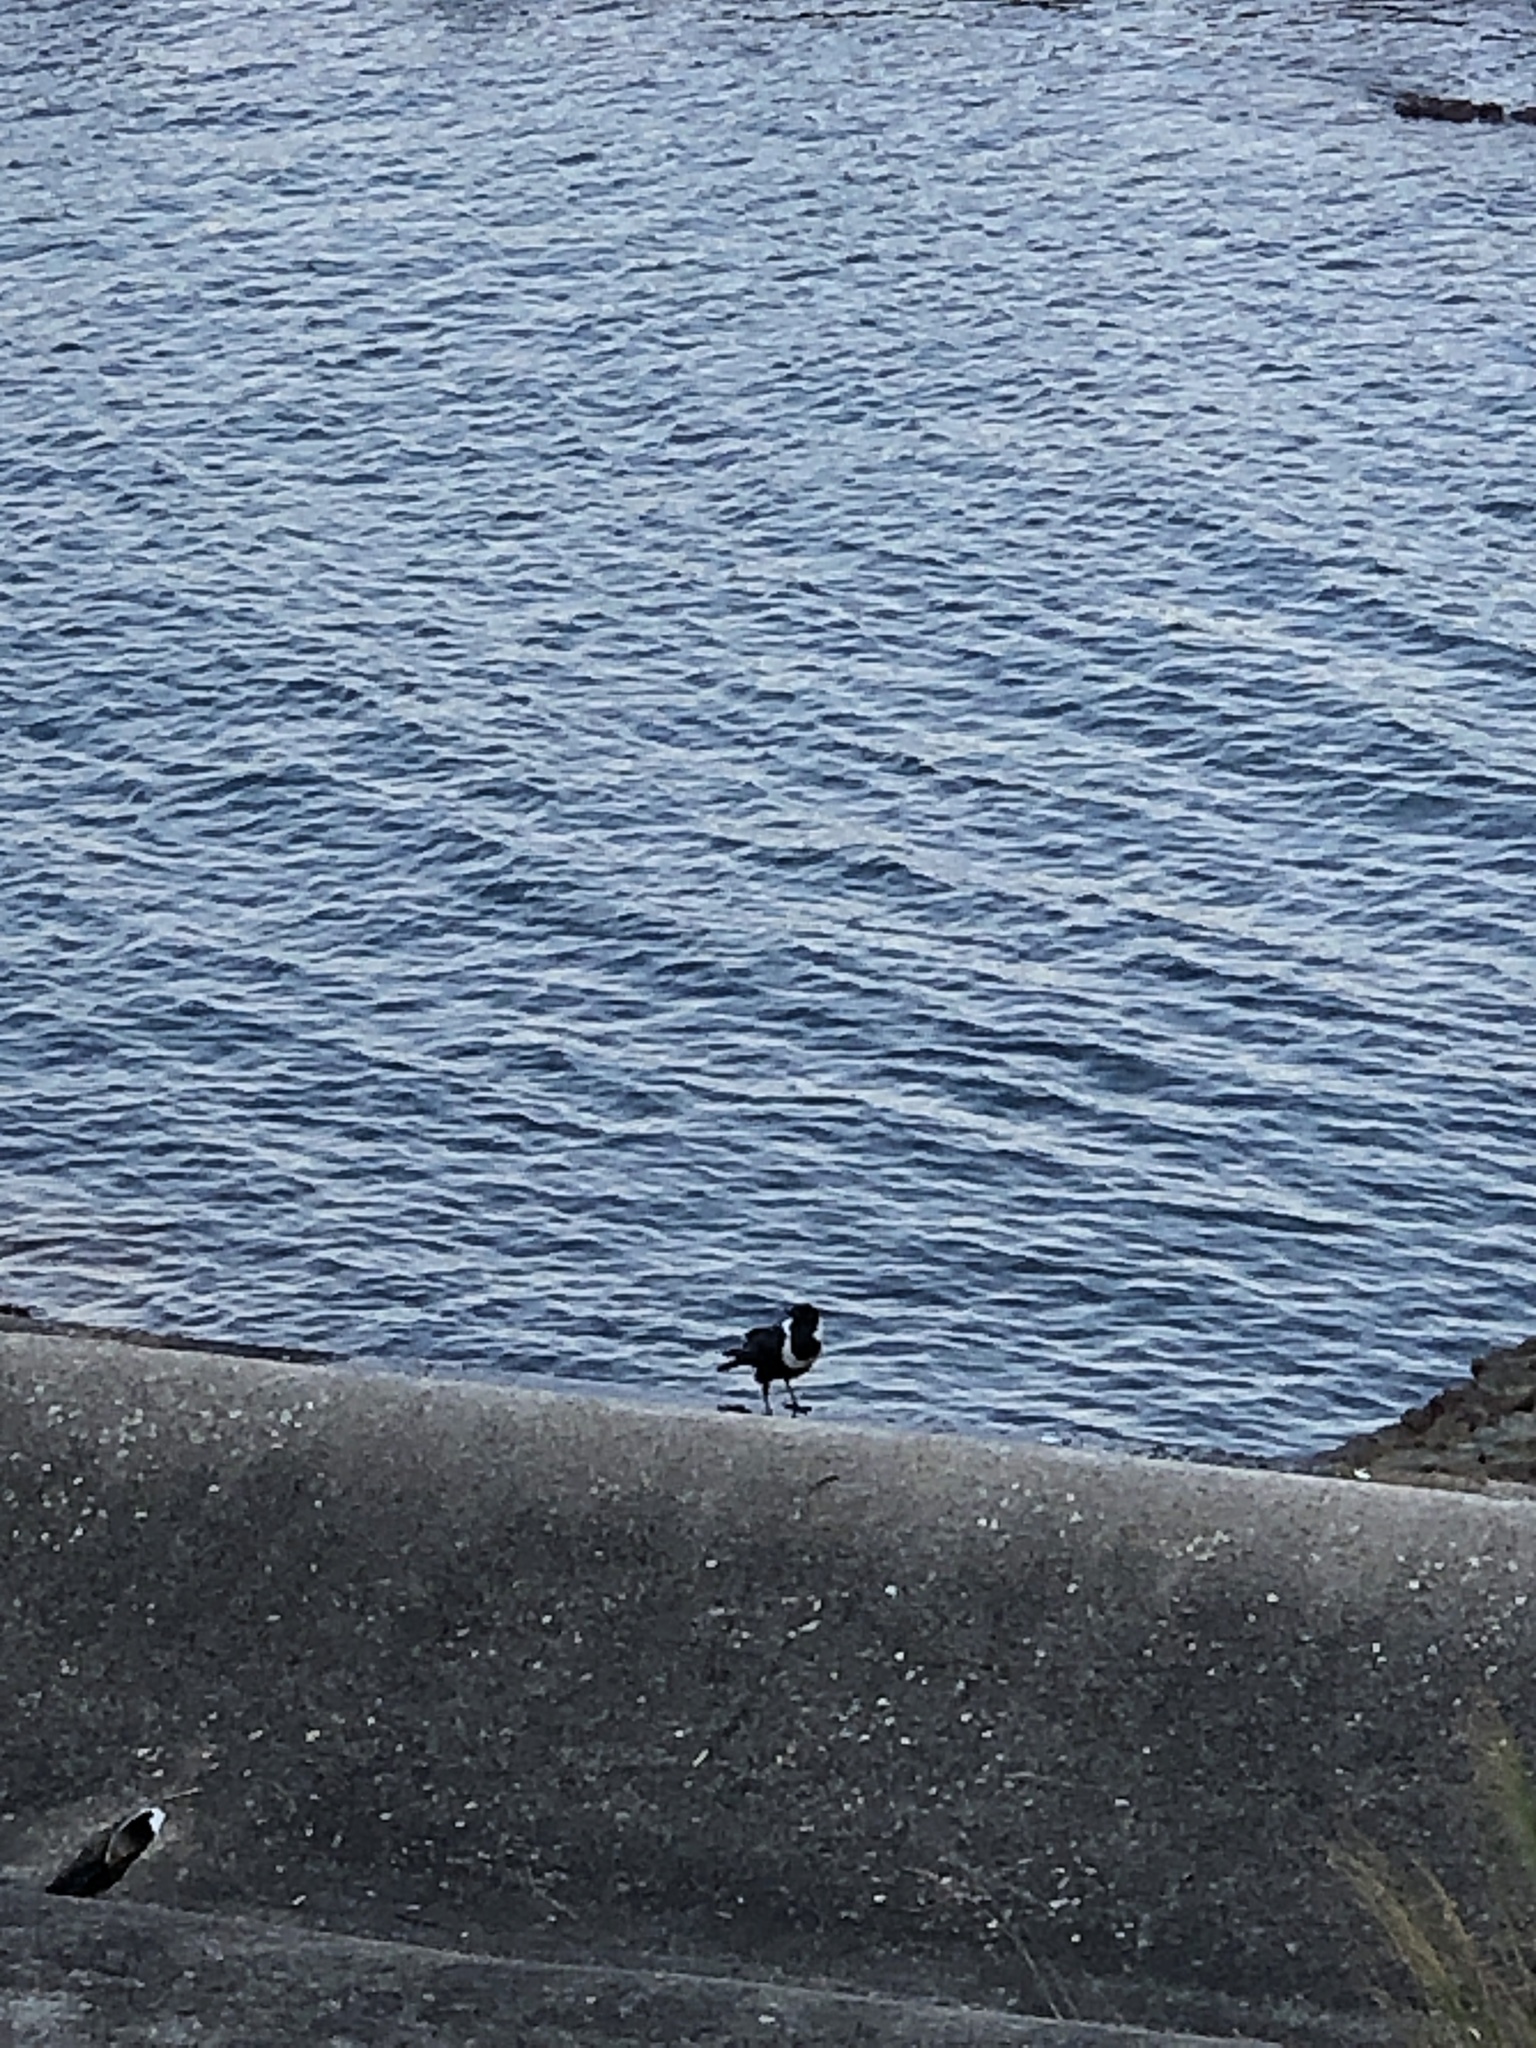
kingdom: Animalia
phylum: Chordata
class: Aves
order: Passeriformes
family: Corvidae
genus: Corvus
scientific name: Corvus pectoralis
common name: Collared crow
